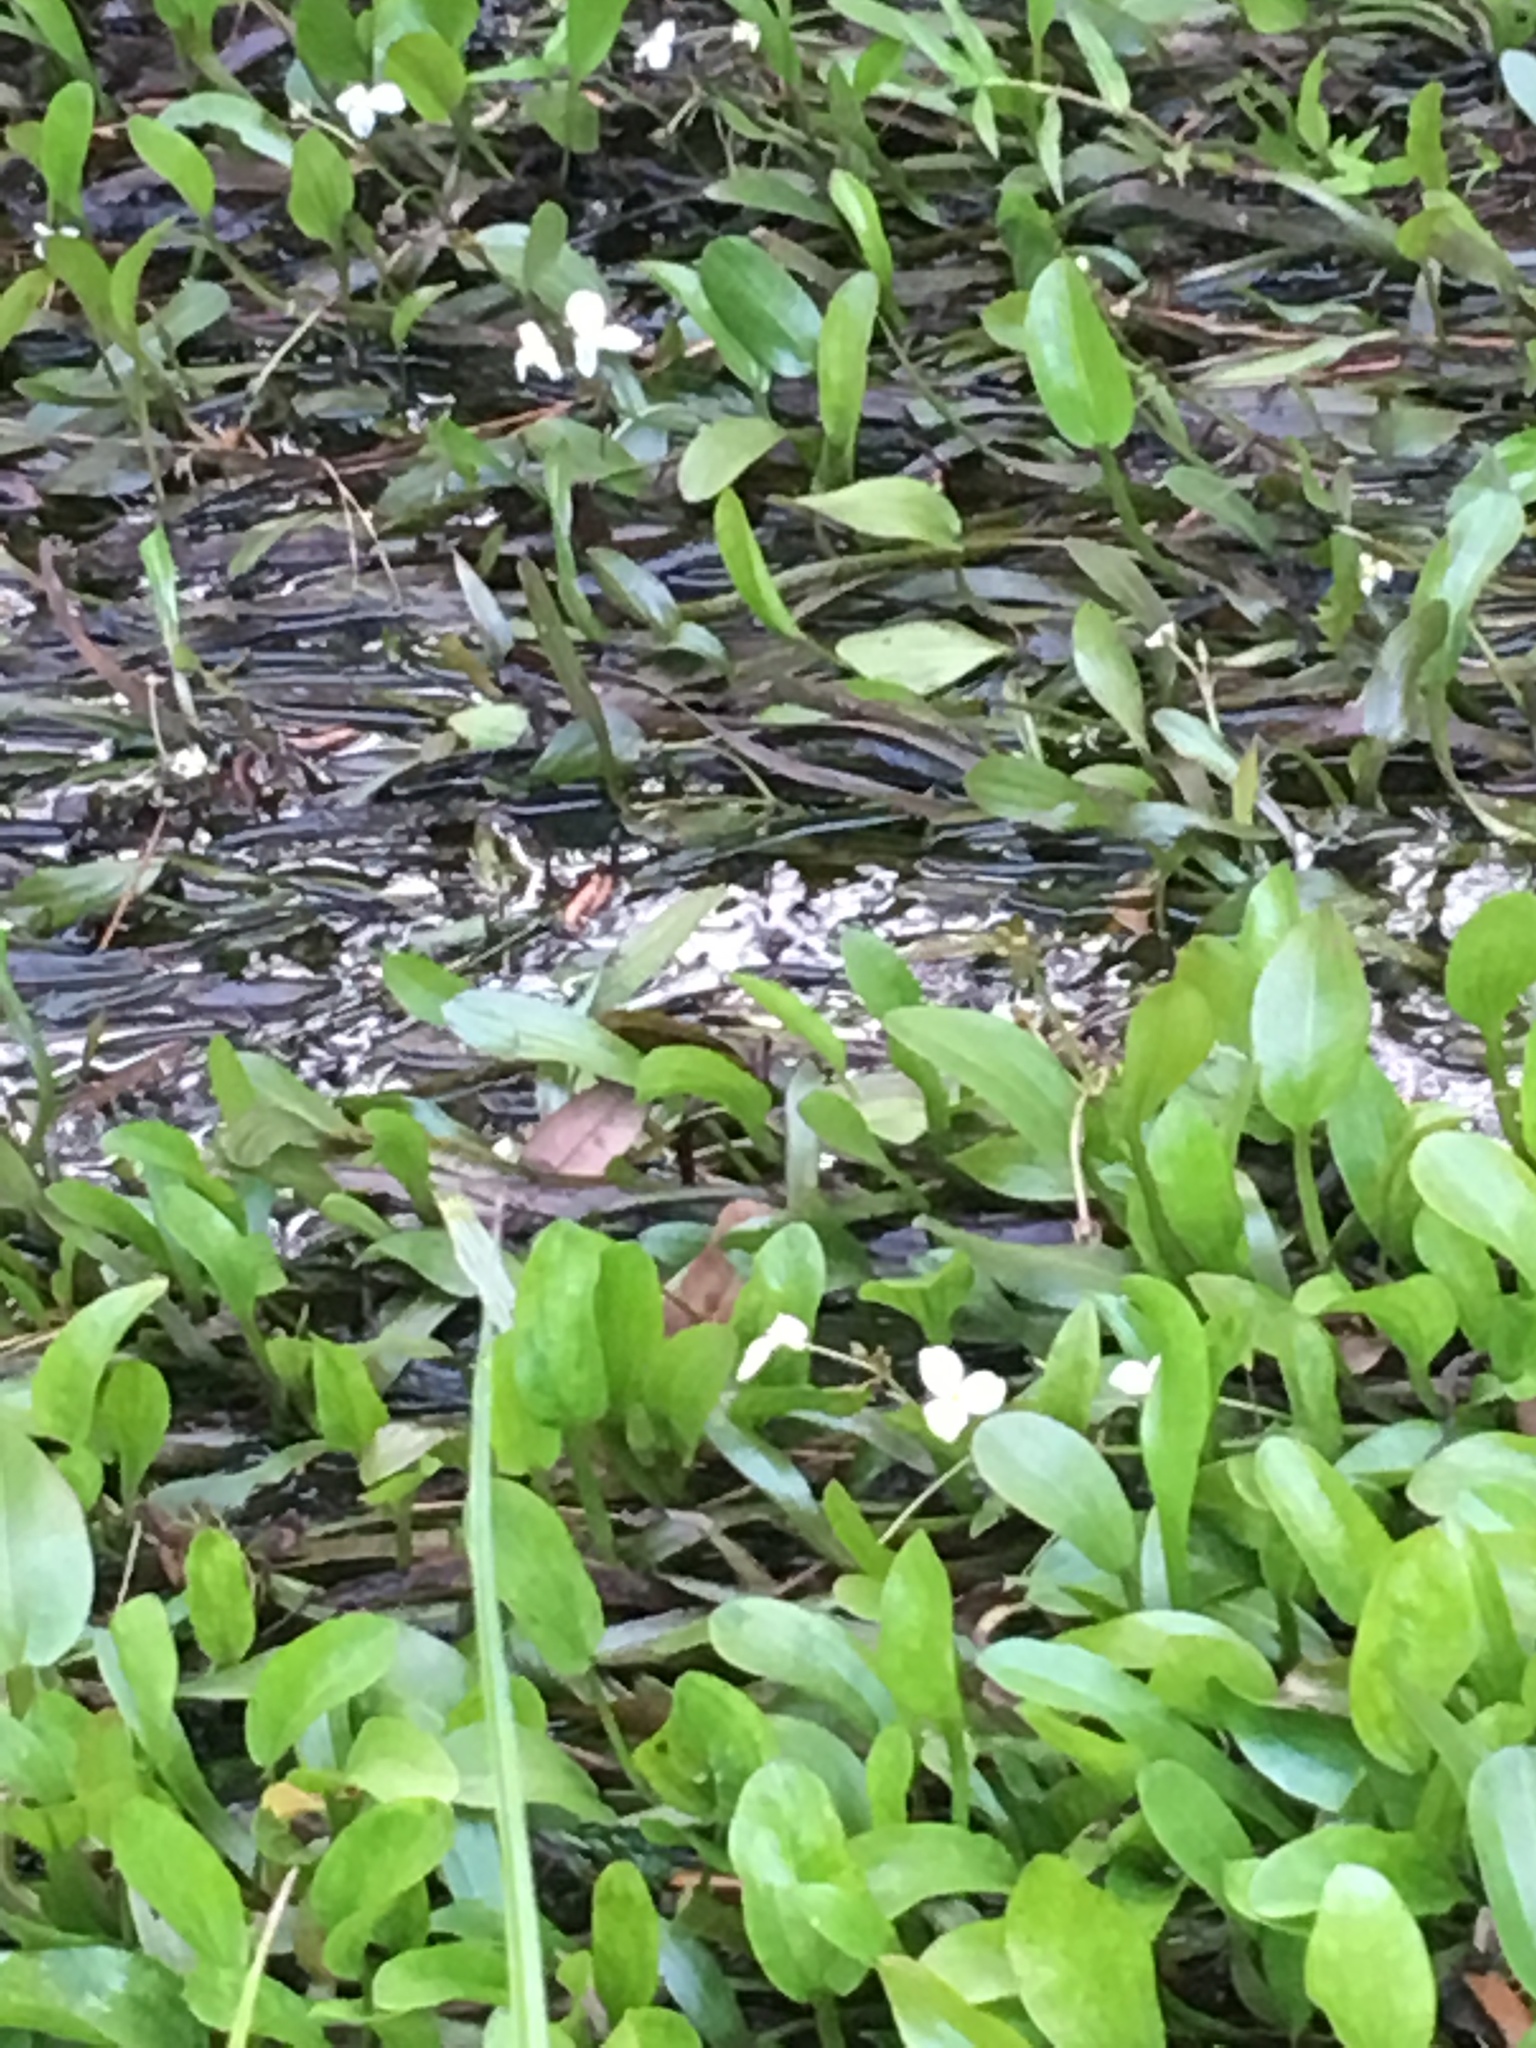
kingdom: Plantae
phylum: Tracheophyta
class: Liliopsida
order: Alismatales
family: Alismataceae
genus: Sagittaria
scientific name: Sagittaria subulata
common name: Narrow-leaved arrowhead
